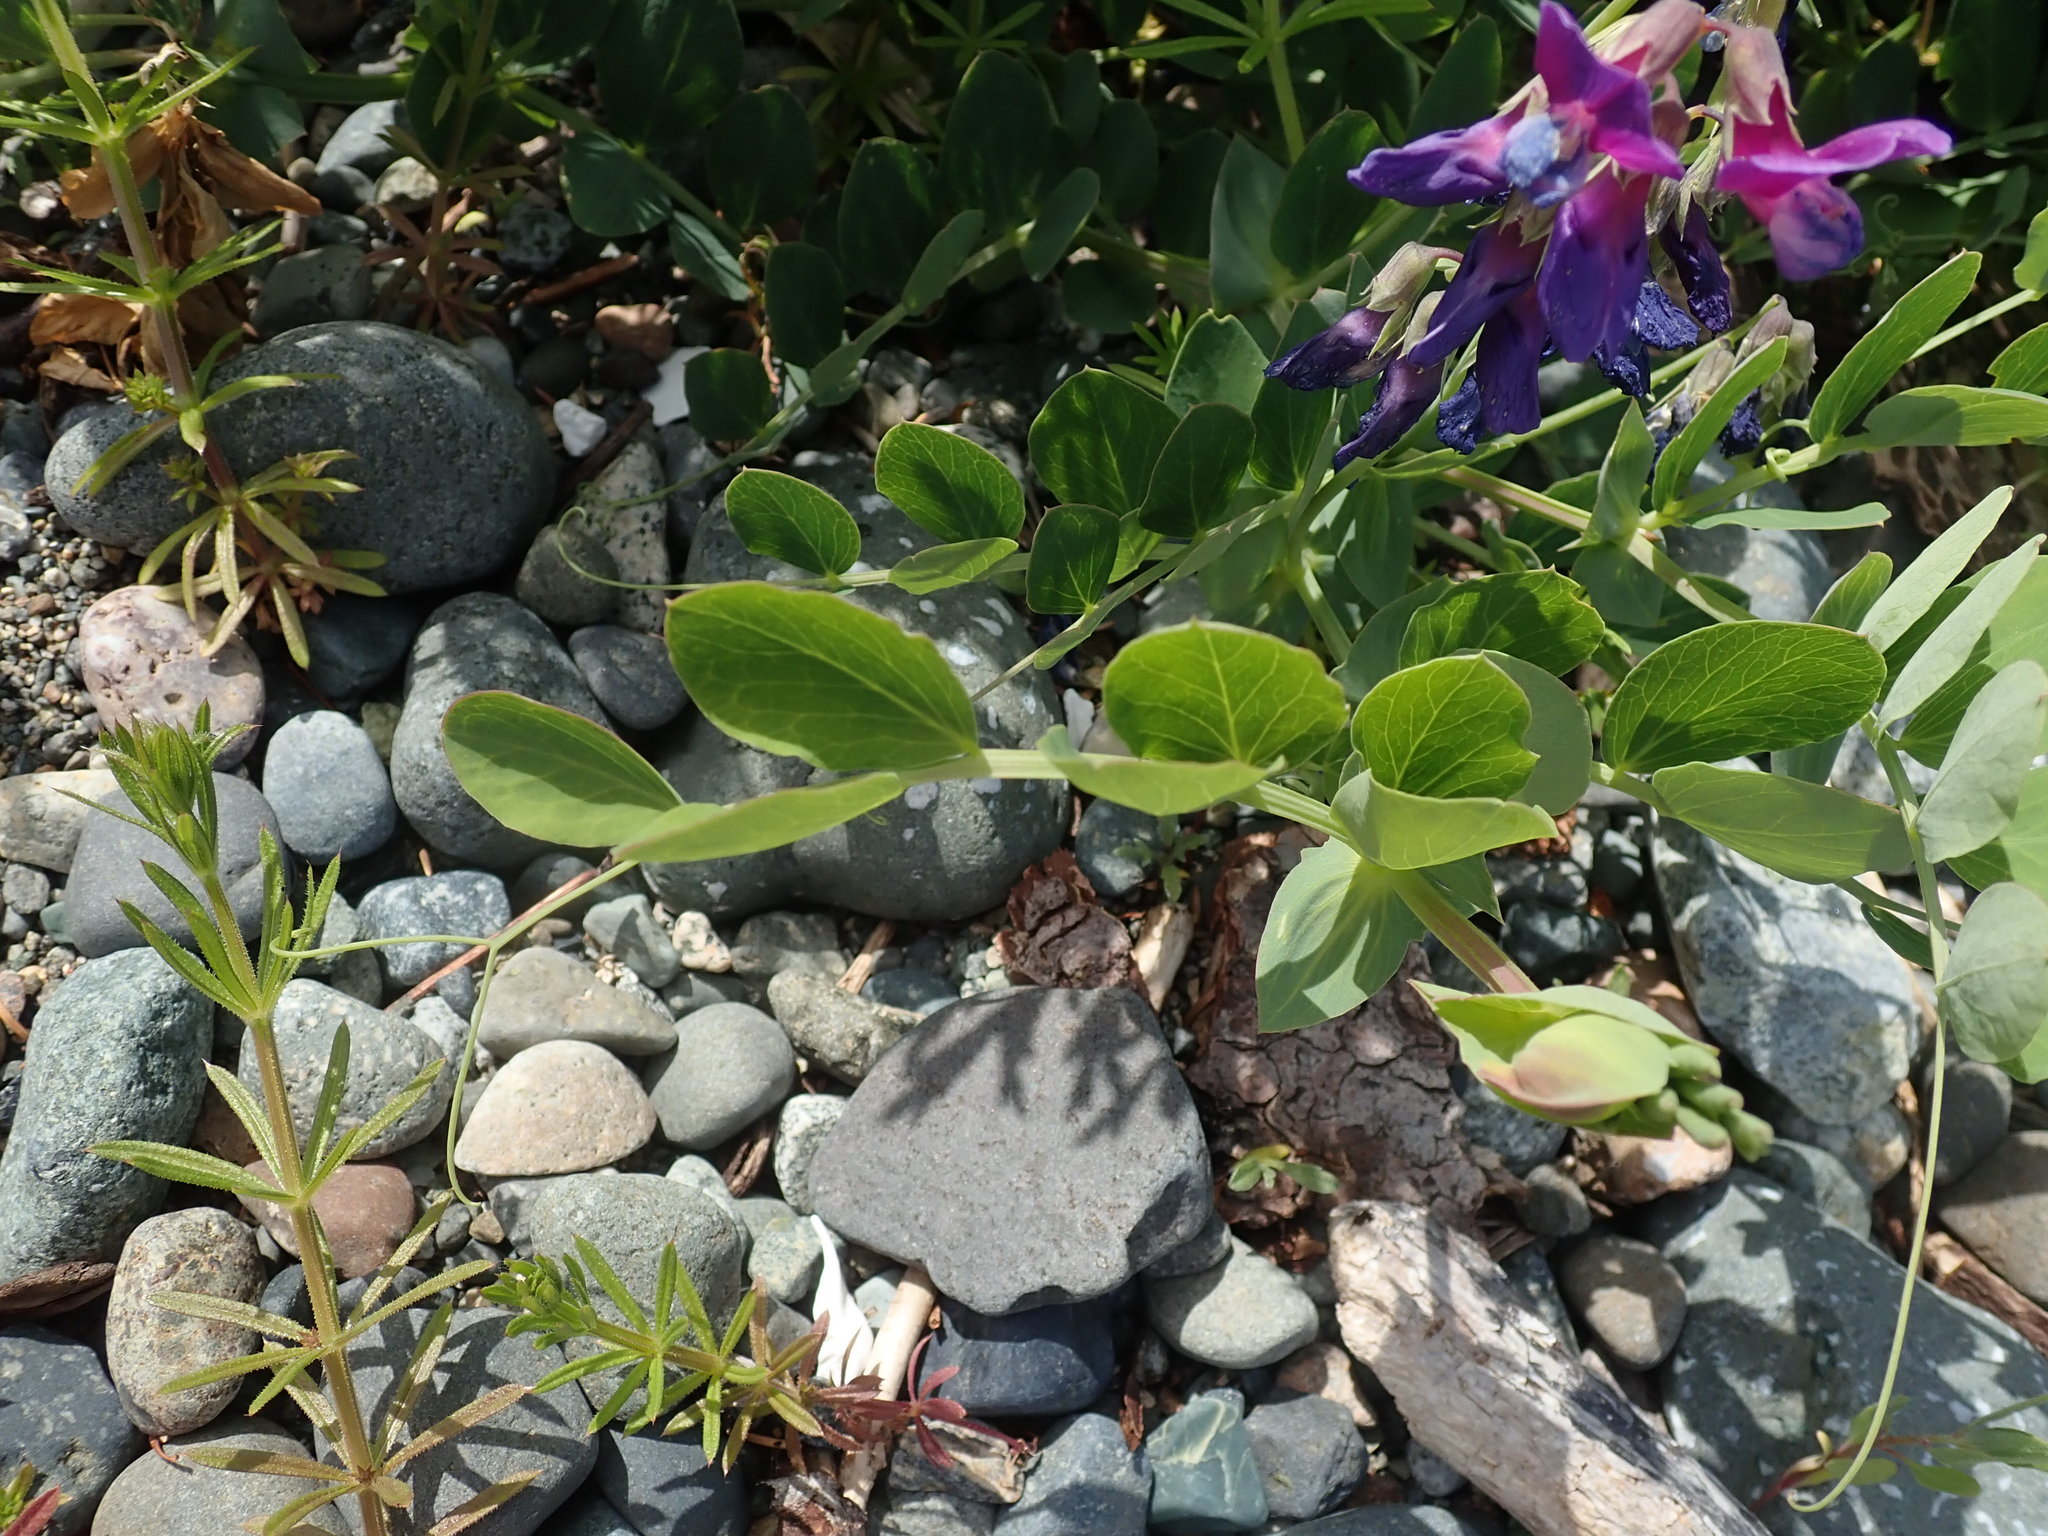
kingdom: Plantae
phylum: Tracheophyta
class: Magnoliopsida
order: Fabales
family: Fabaceae
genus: Lathyrus
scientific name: Lathyrus japonicus
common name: Sea pea
